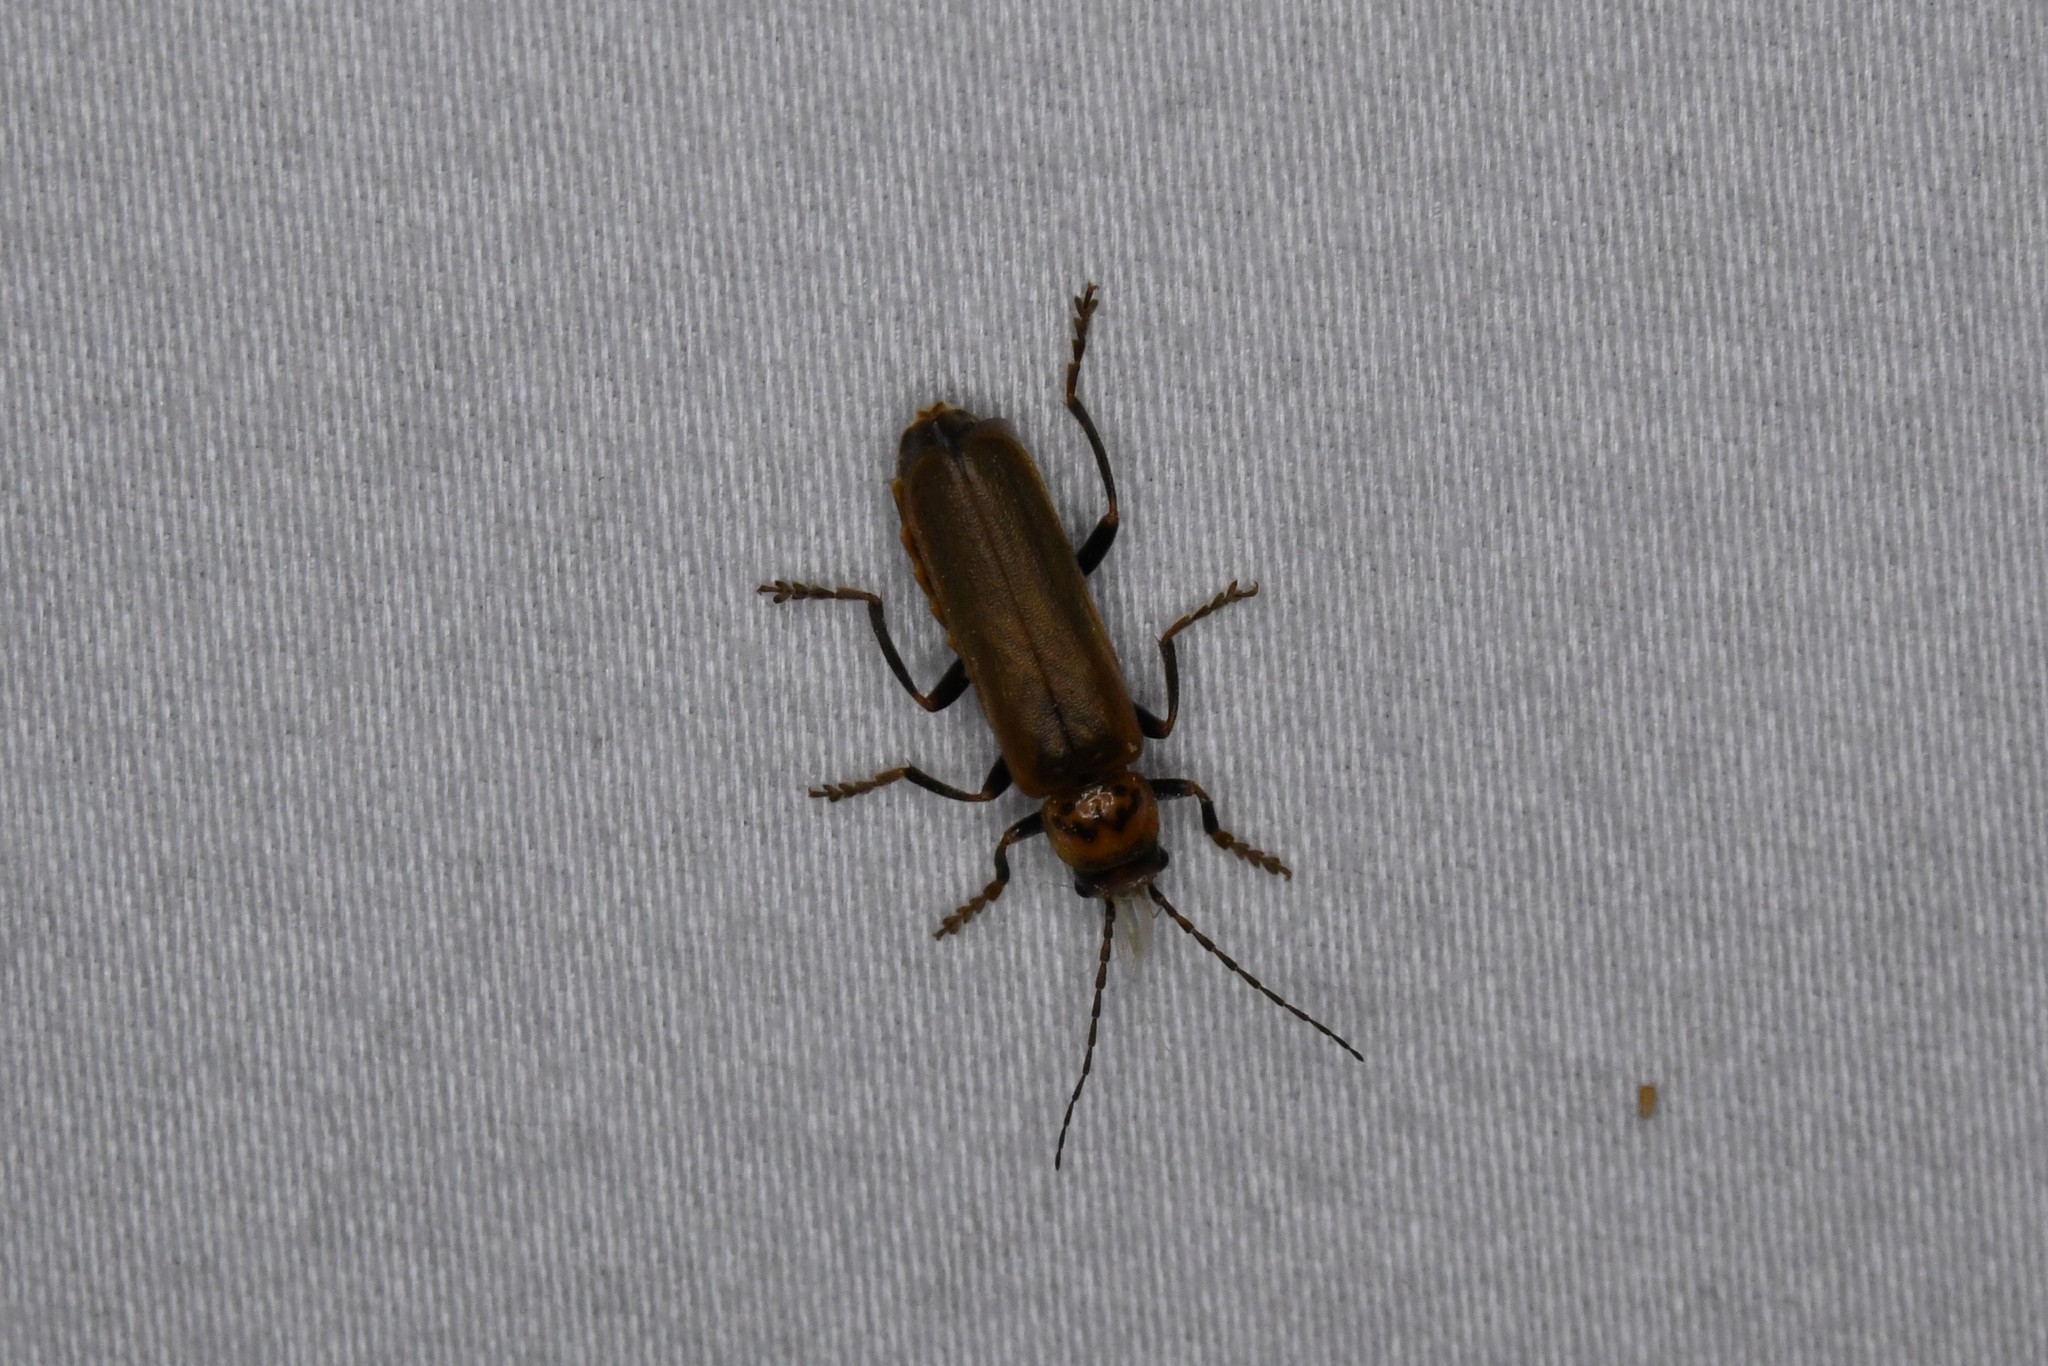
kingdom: Animalia
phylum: Arthropoda
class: Insecta
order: Coleoptera
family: Cantharidae
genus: Cantharis
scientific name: Cantharis livida
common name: Livid soldier beetle
